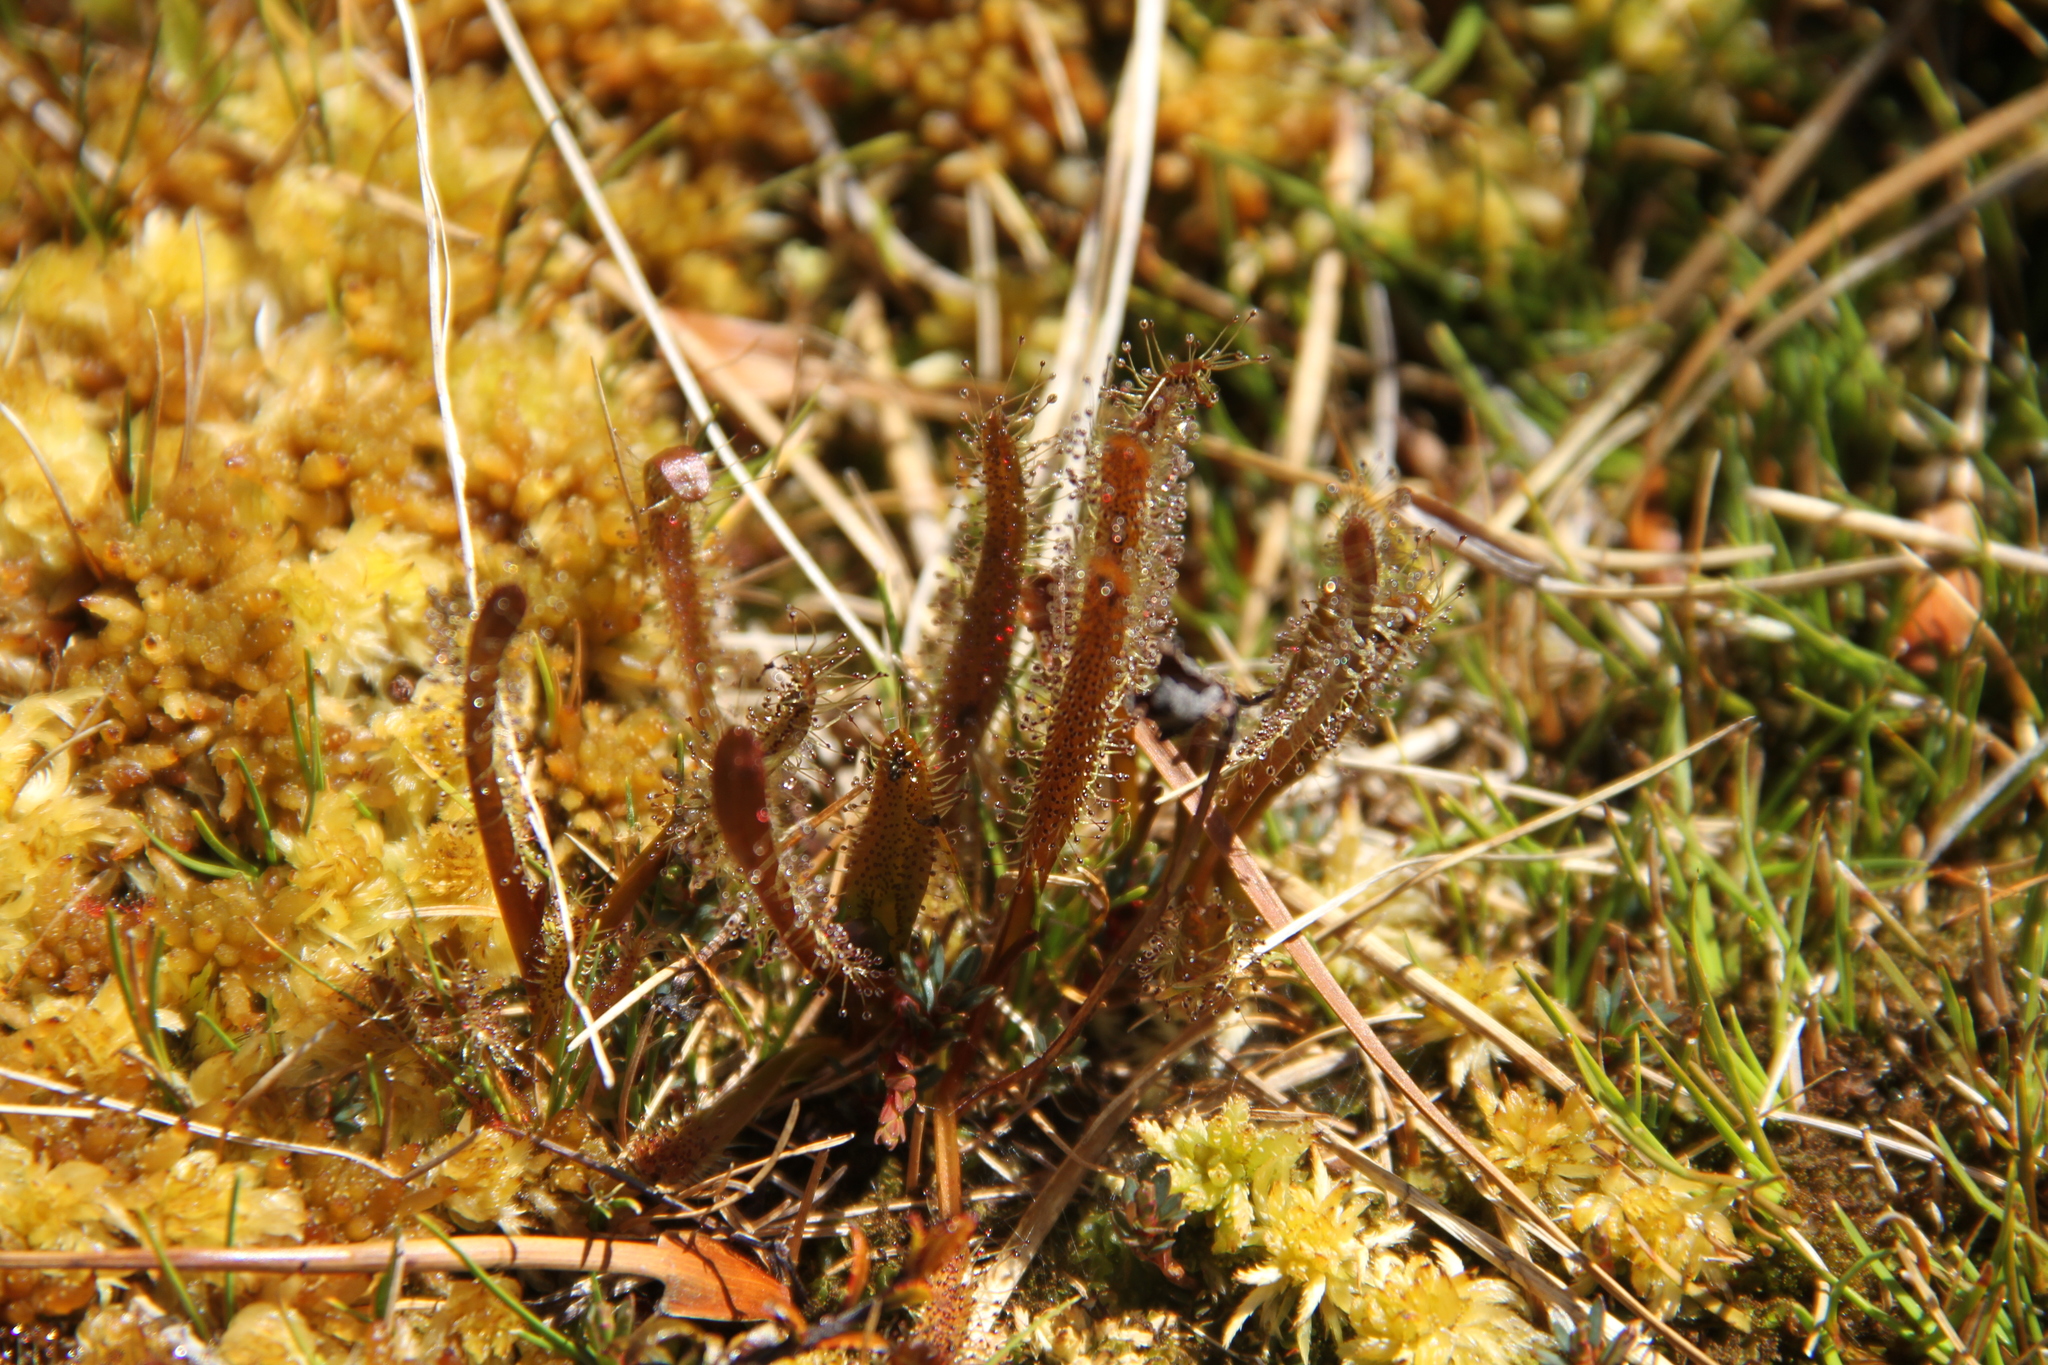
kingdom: Plantae
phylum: Tracheophyta
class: Magnoliopsida
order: Caryophyllales
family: Droseraceae
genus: Drosera
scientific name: Drosera arcturi
